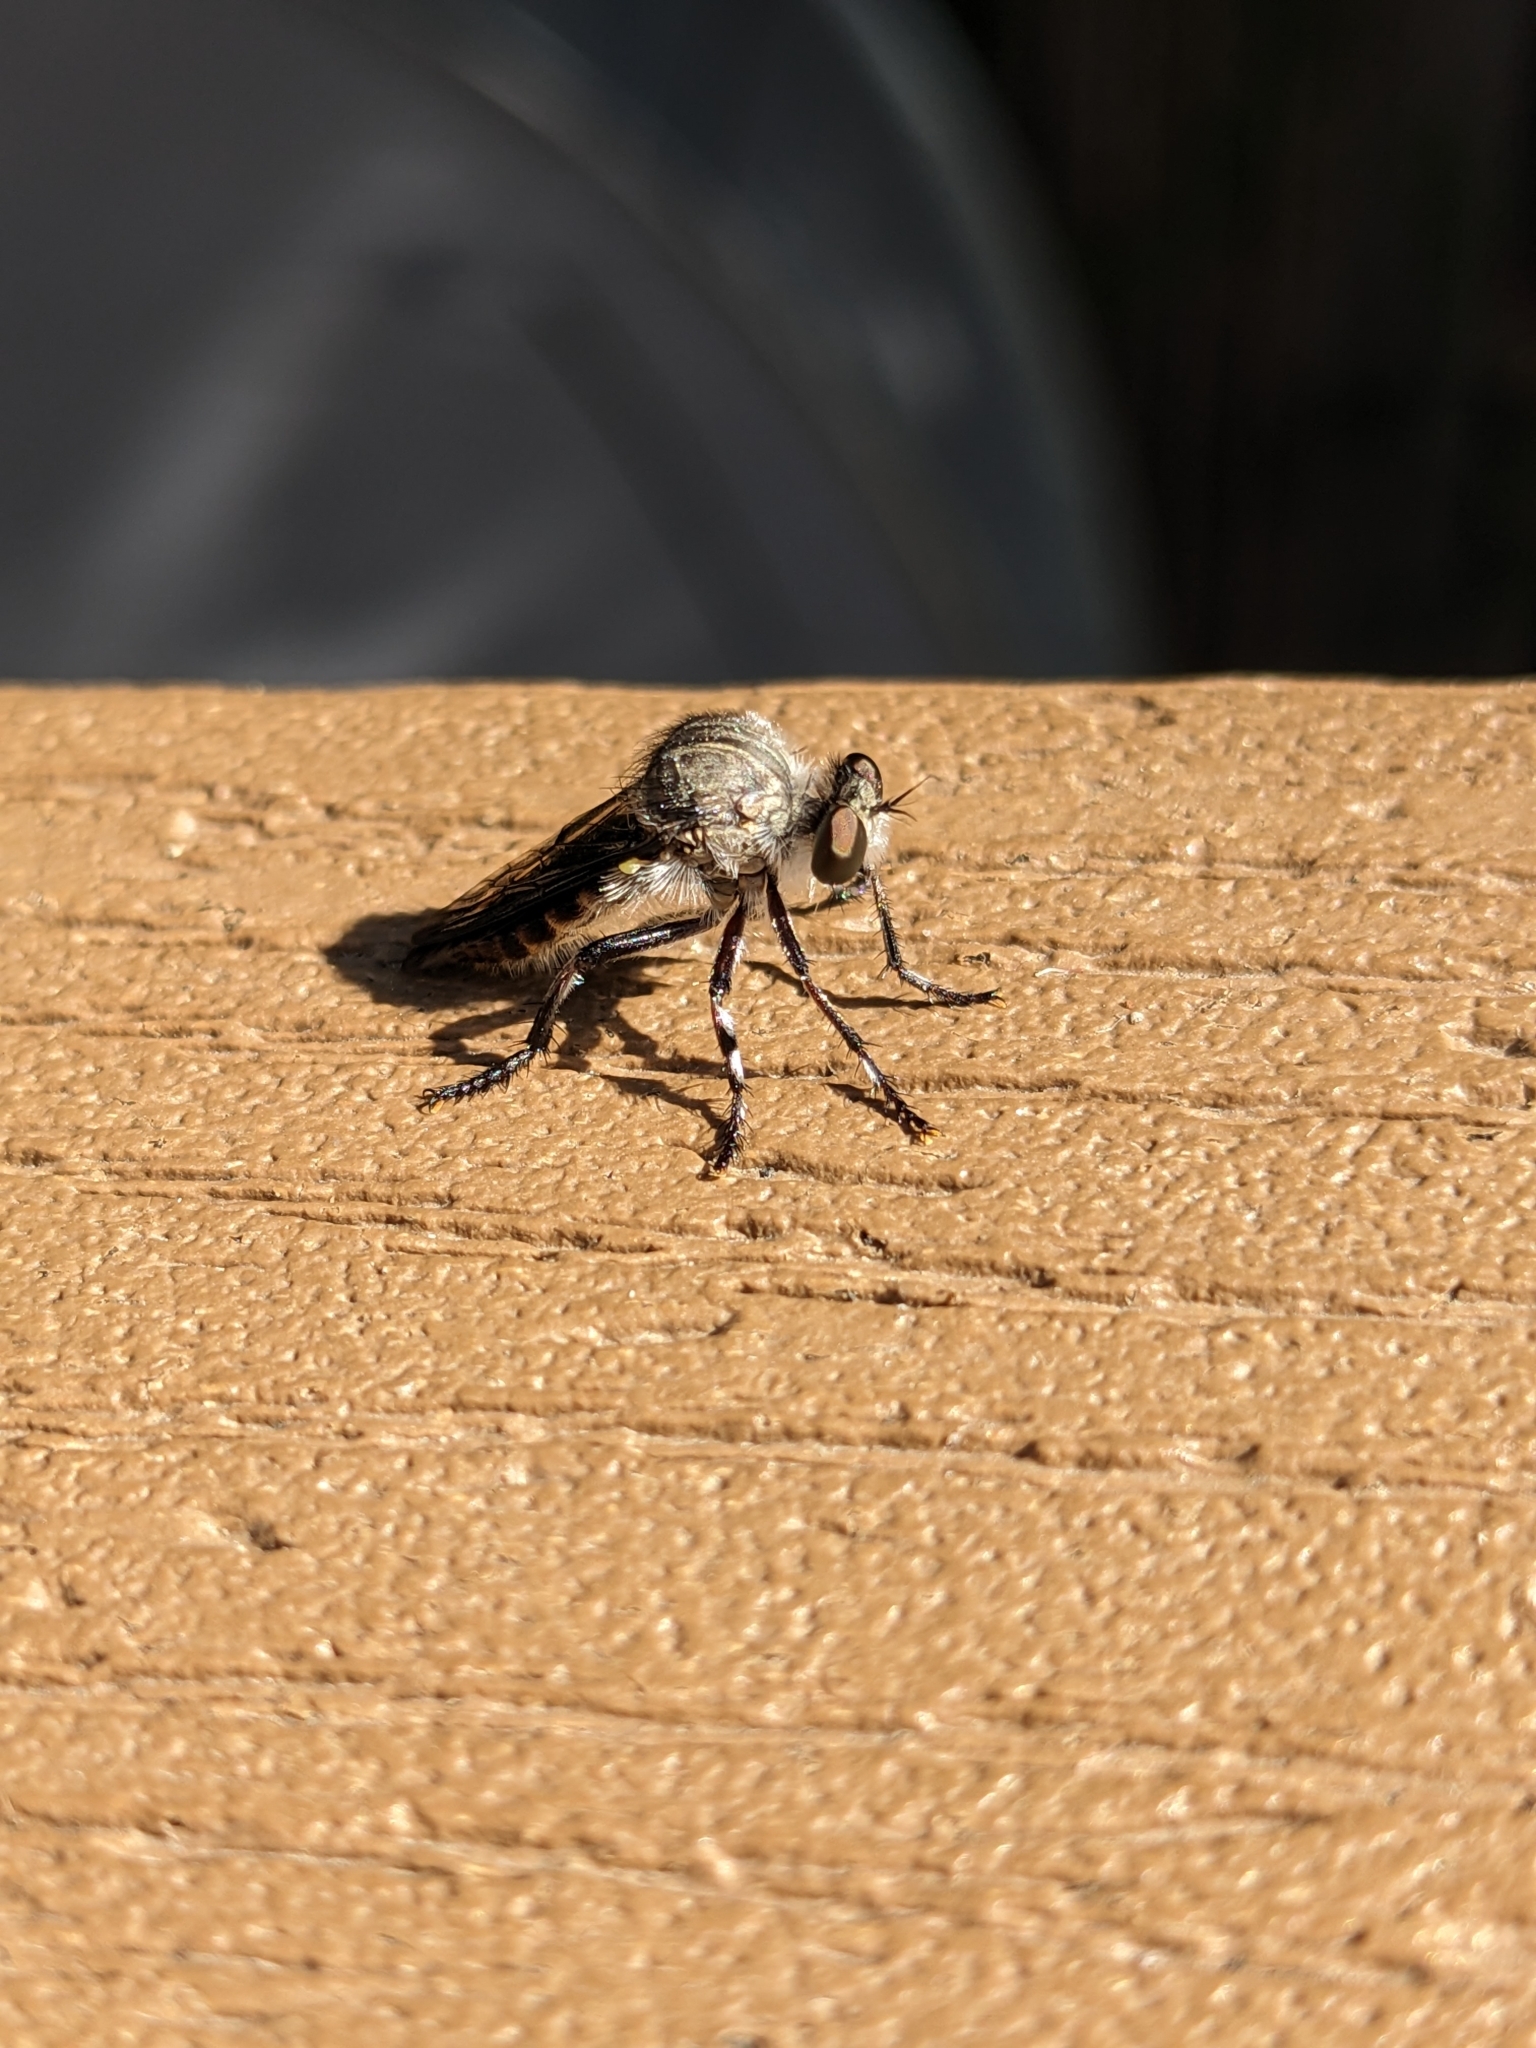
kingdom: Animalia
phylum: Arthropoda
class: Insecta
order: Diptera
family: Asilidae
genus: Heteropogon
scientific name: Heteropogon macerinus
